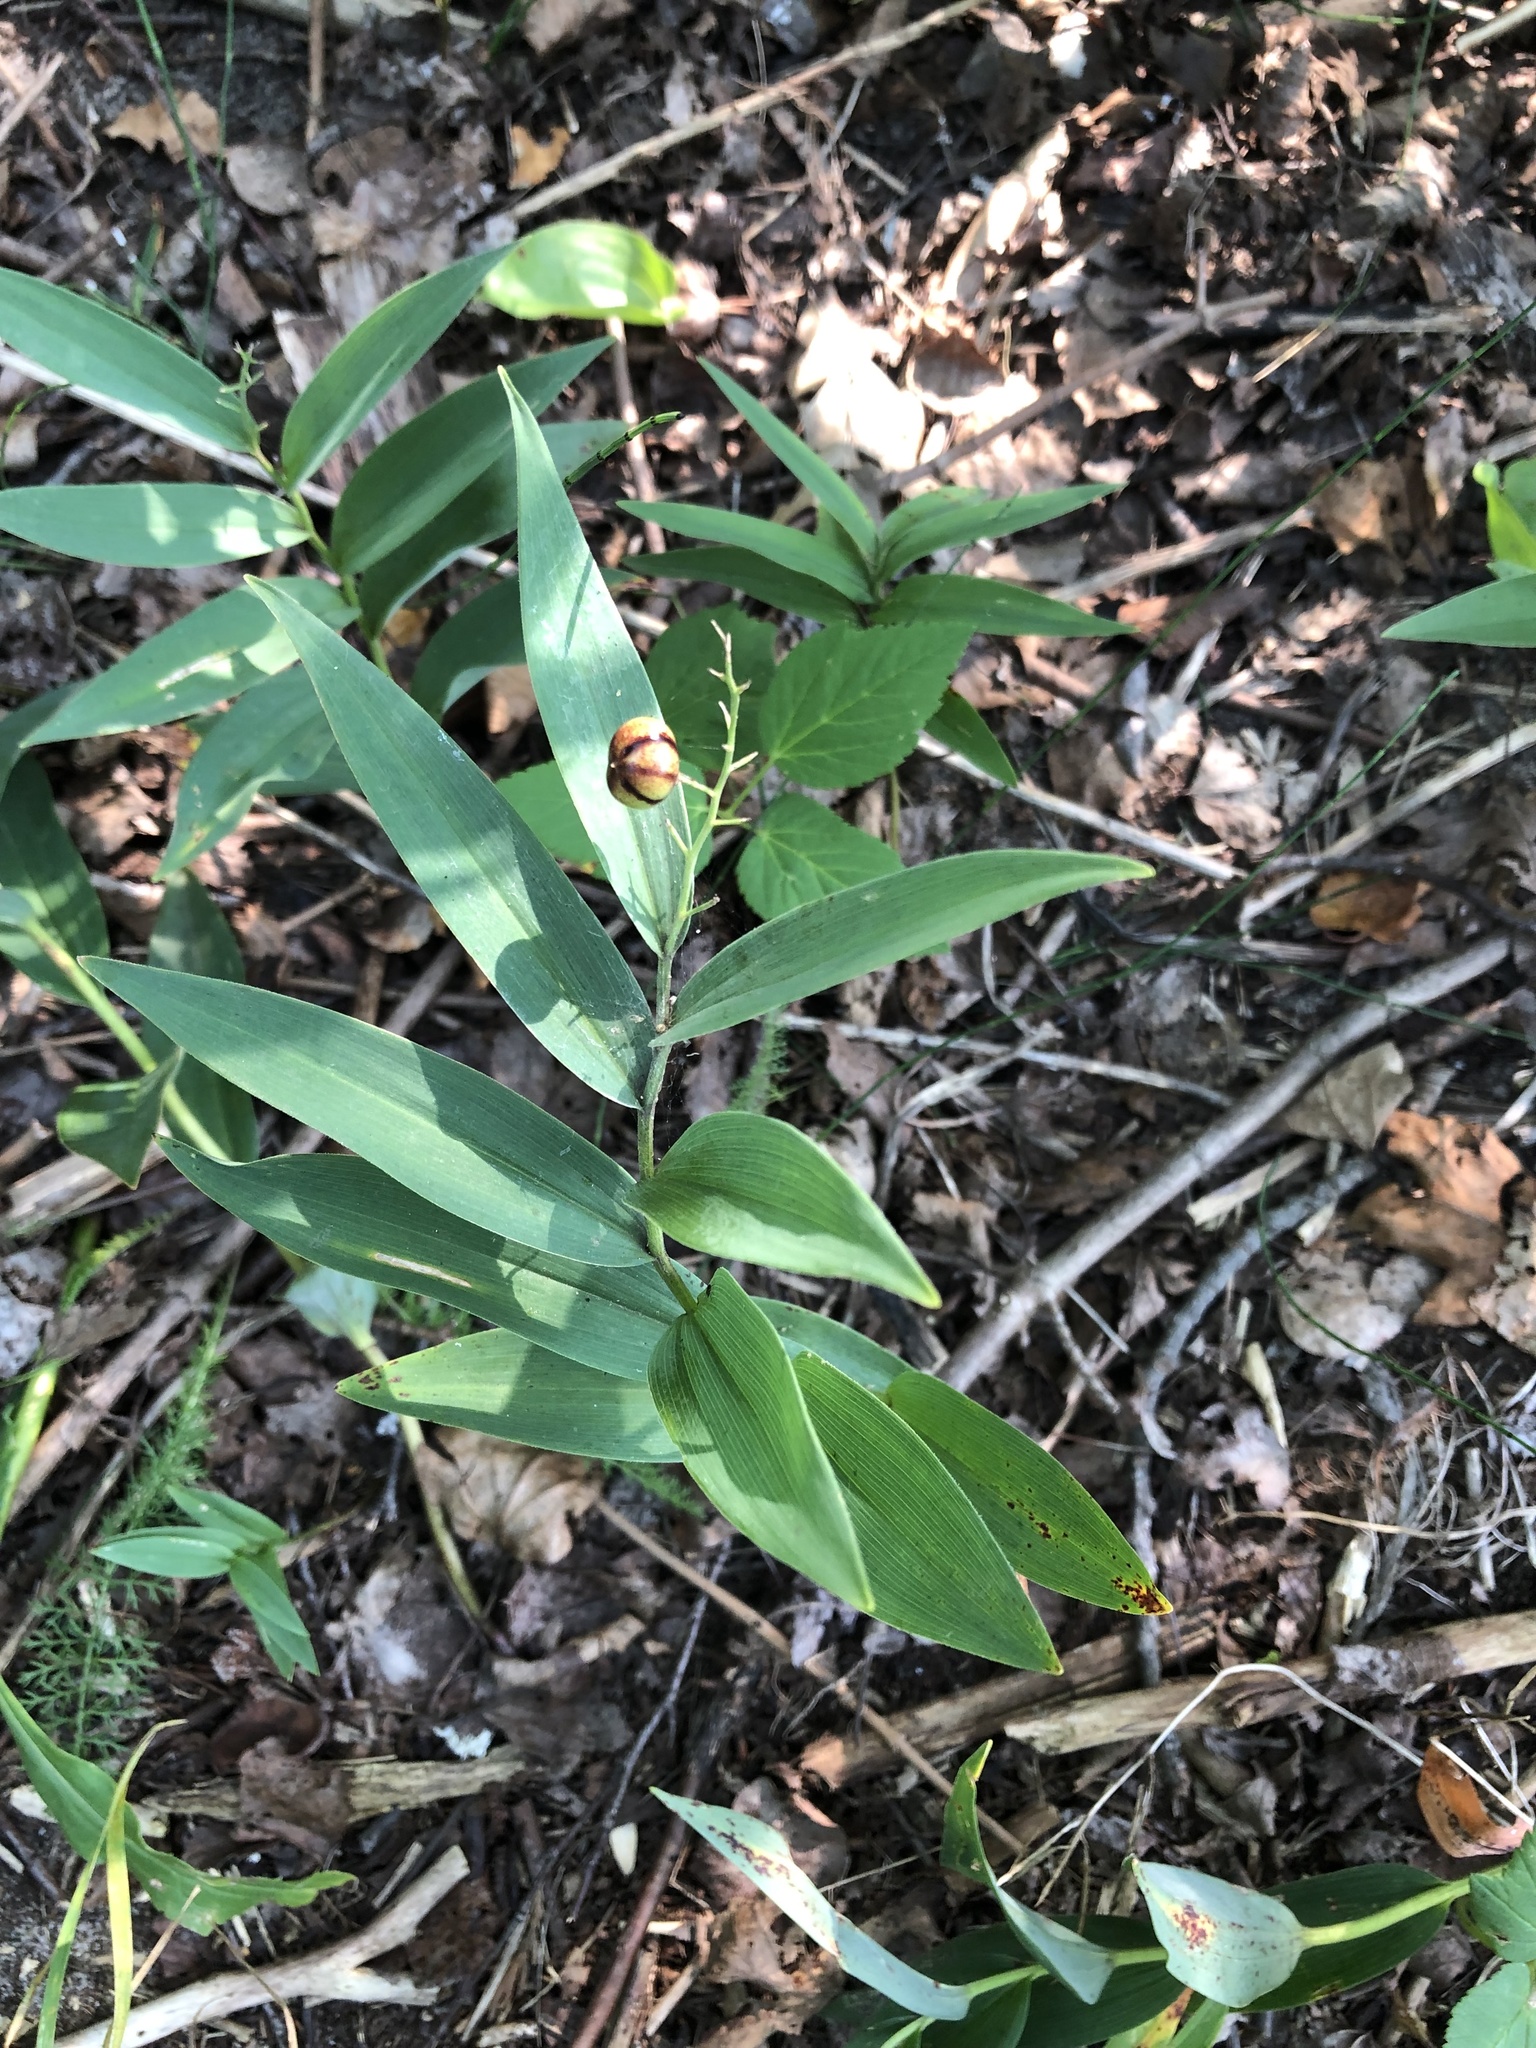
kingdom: Plantae
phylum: Tracheophyta
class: Liliopsida
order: Asparagales
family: Asparagaceae
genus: Maianthemum
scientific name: Maianthemum stellatum
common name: Little false solomon's seal
